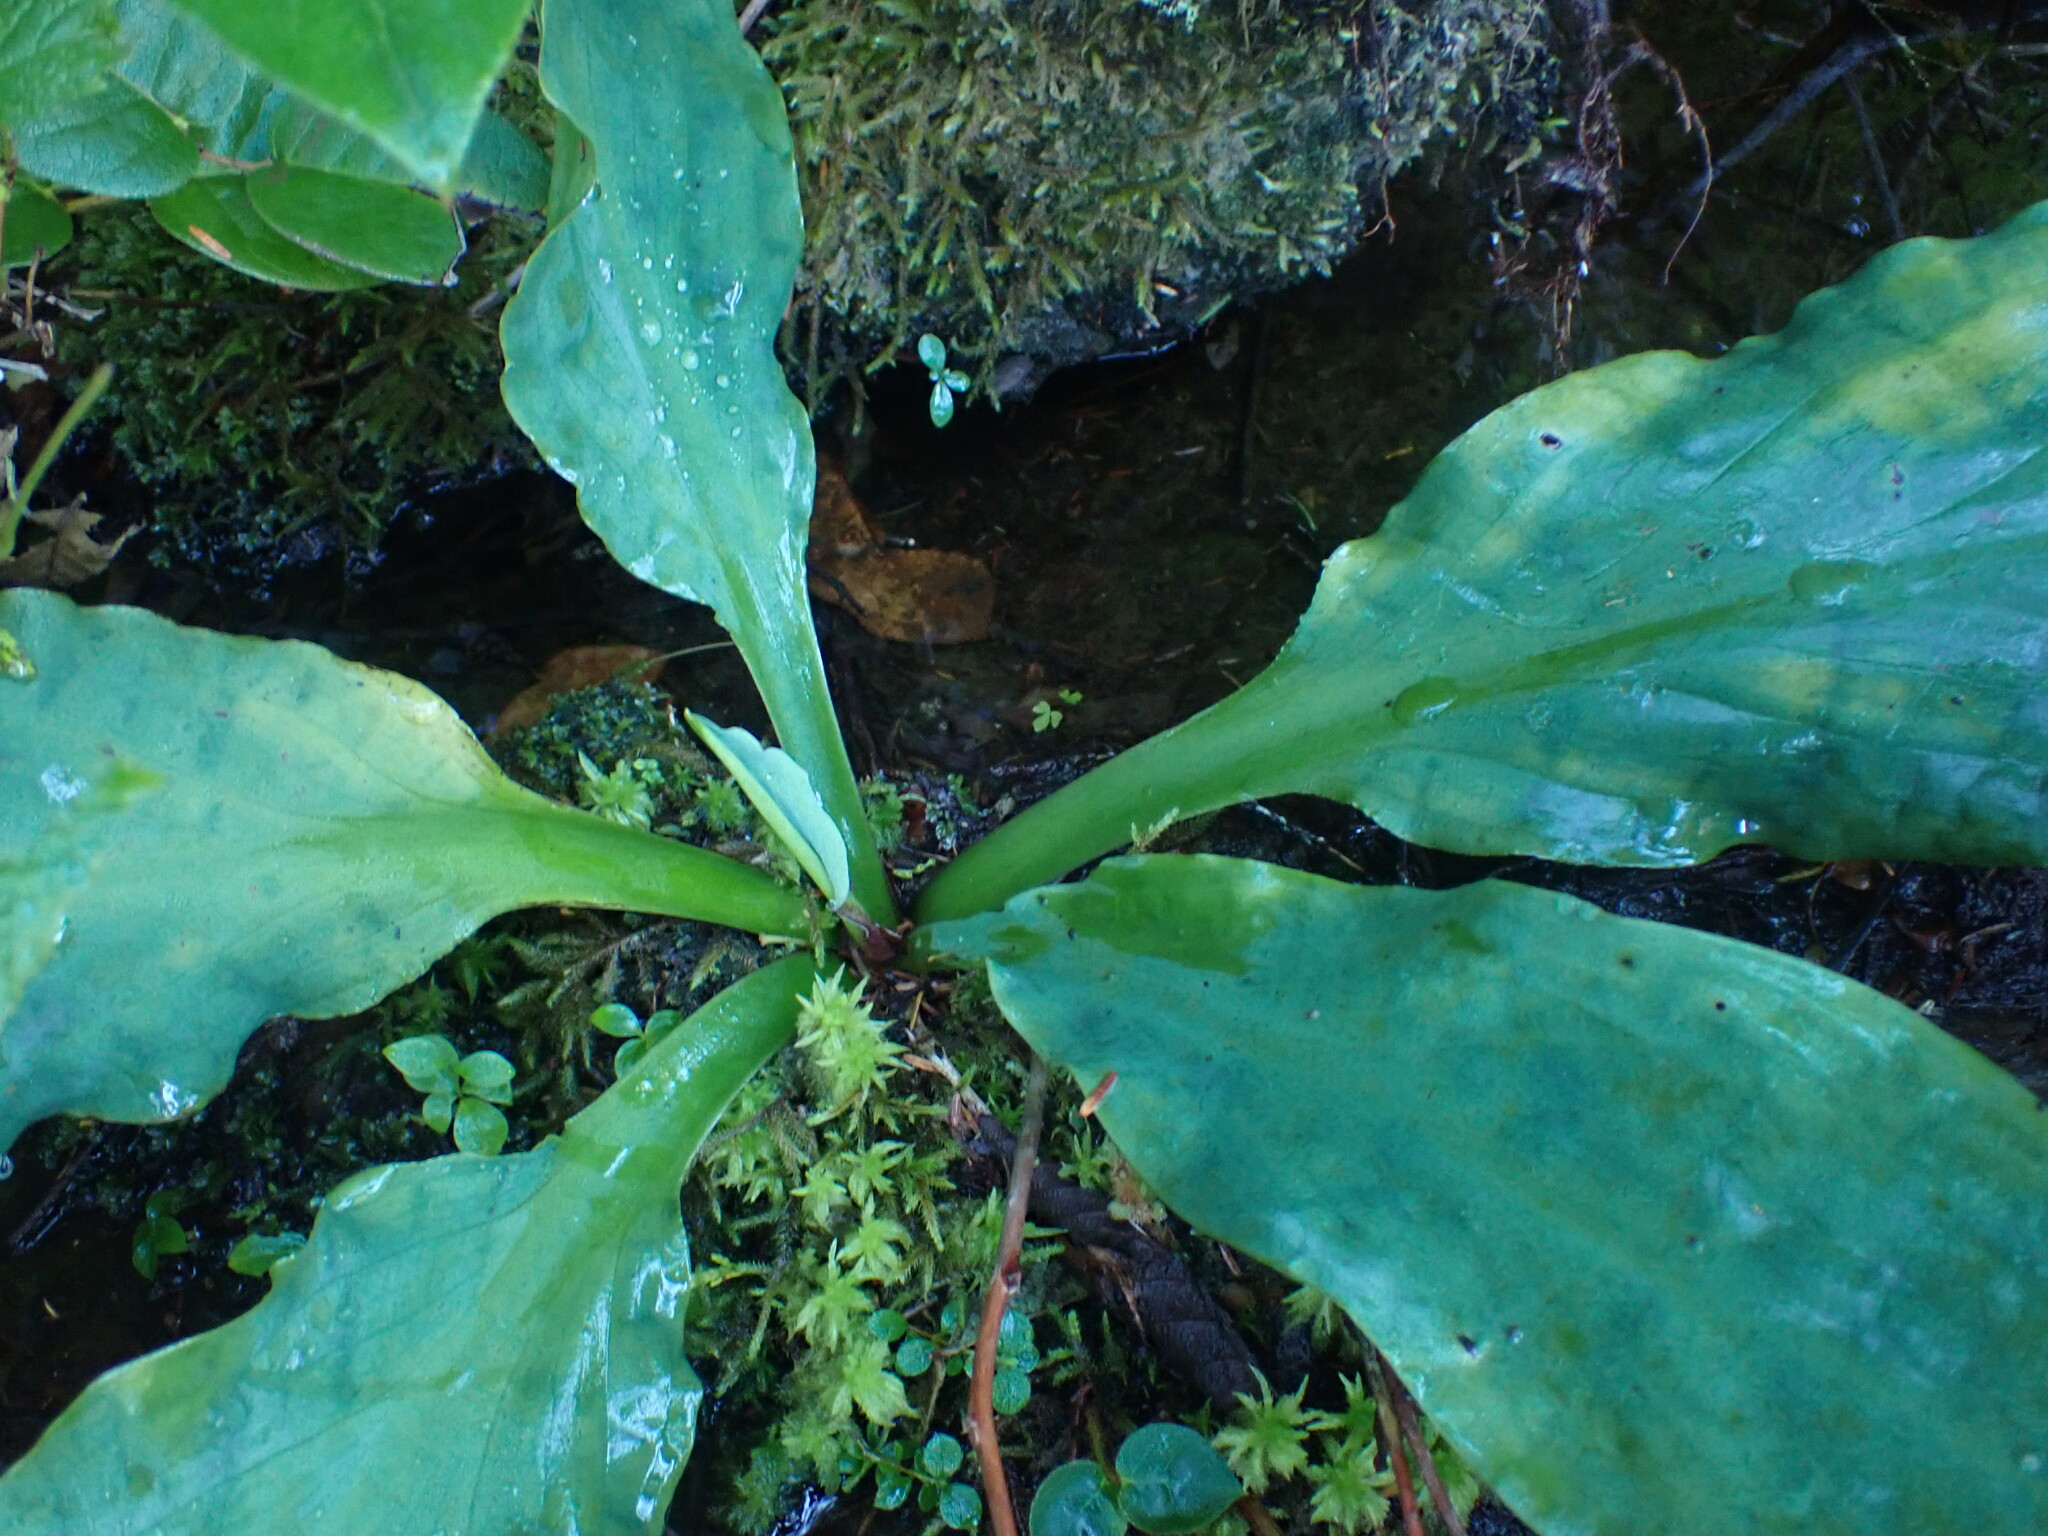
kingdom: Plantae
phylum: Tracheophyta
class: Liliopsida
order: Alismatales
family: Araceae
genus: Lysichiton
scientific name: Lysichiton americanus
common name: American skunk cabbage
